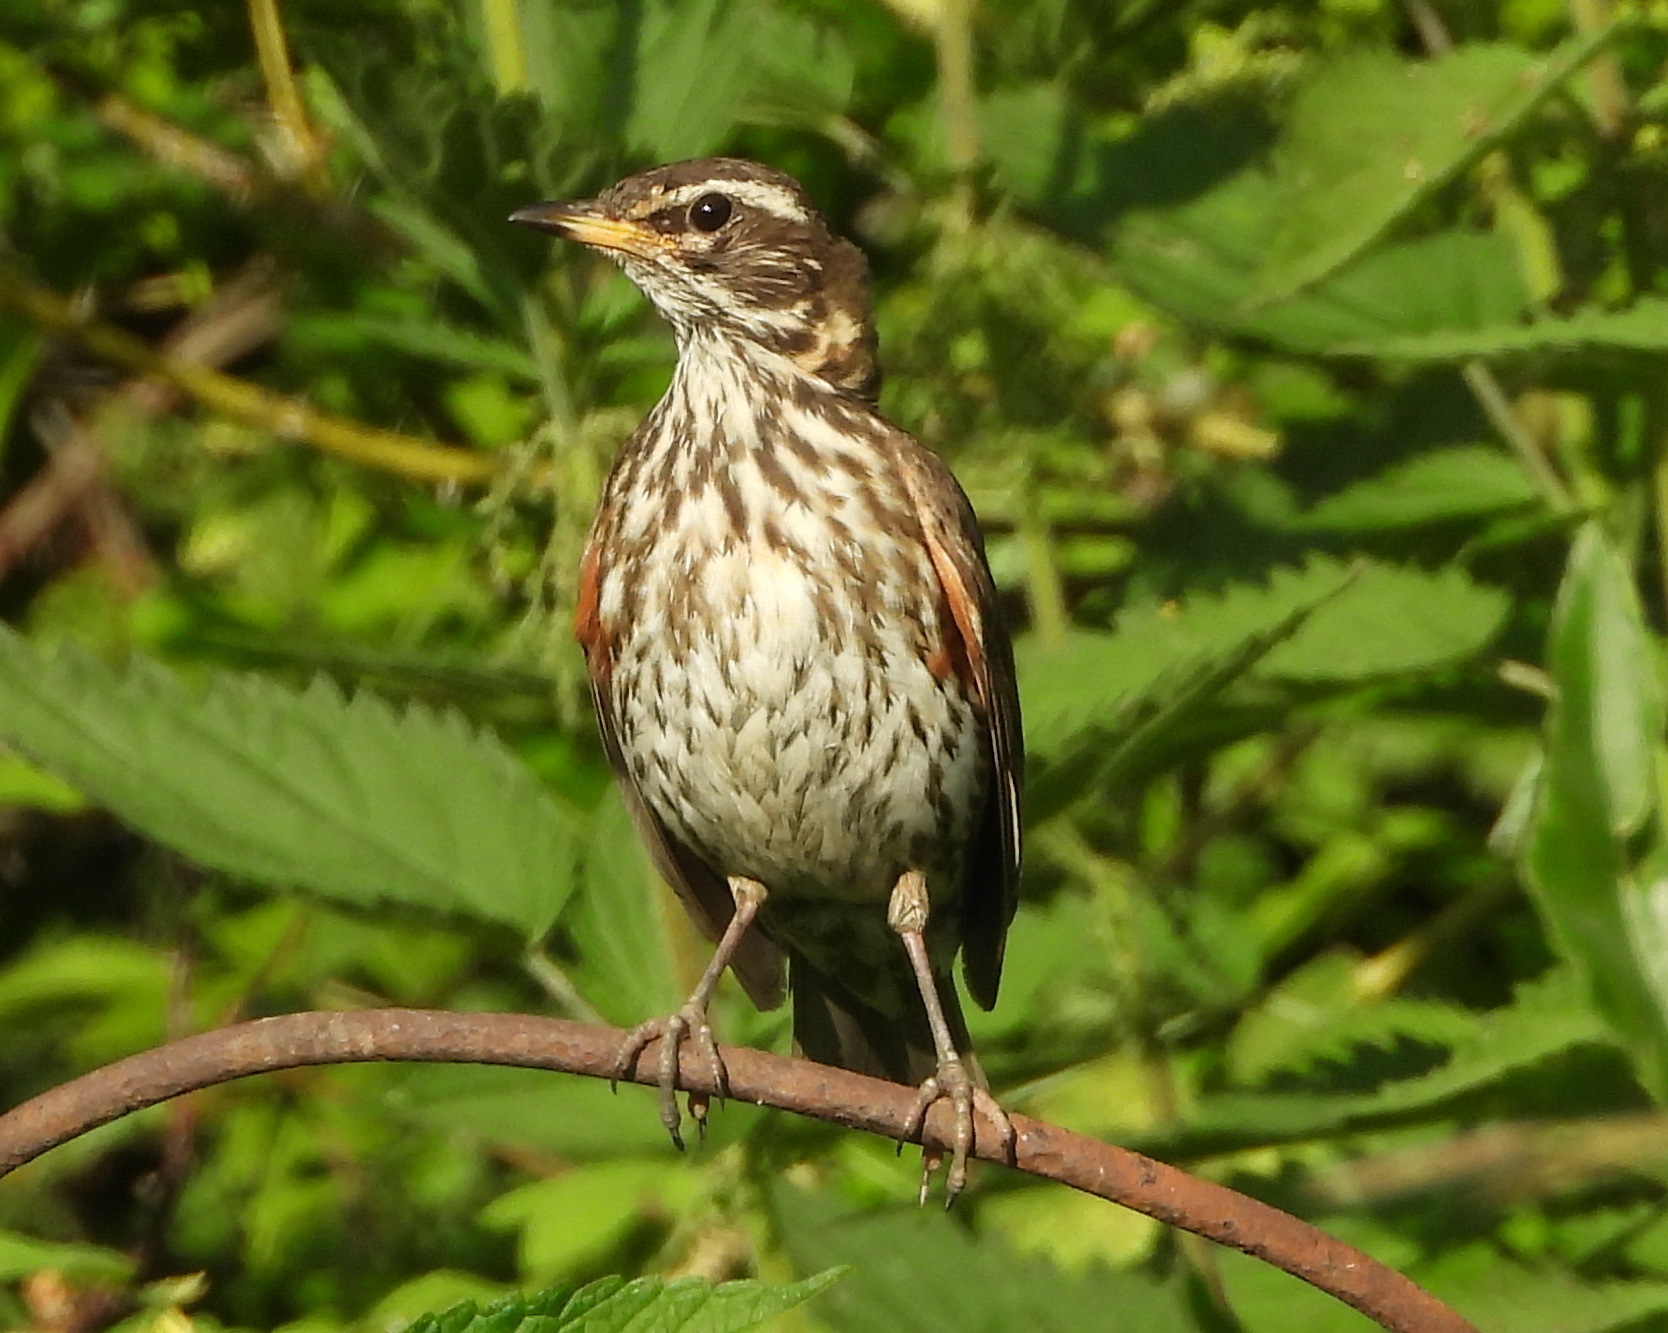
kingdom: Animalia
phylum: Chordata
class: Aves
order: Passeriformes
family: Turdidae
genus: Turdus
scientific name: Turdus iliacus
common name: Redwing
